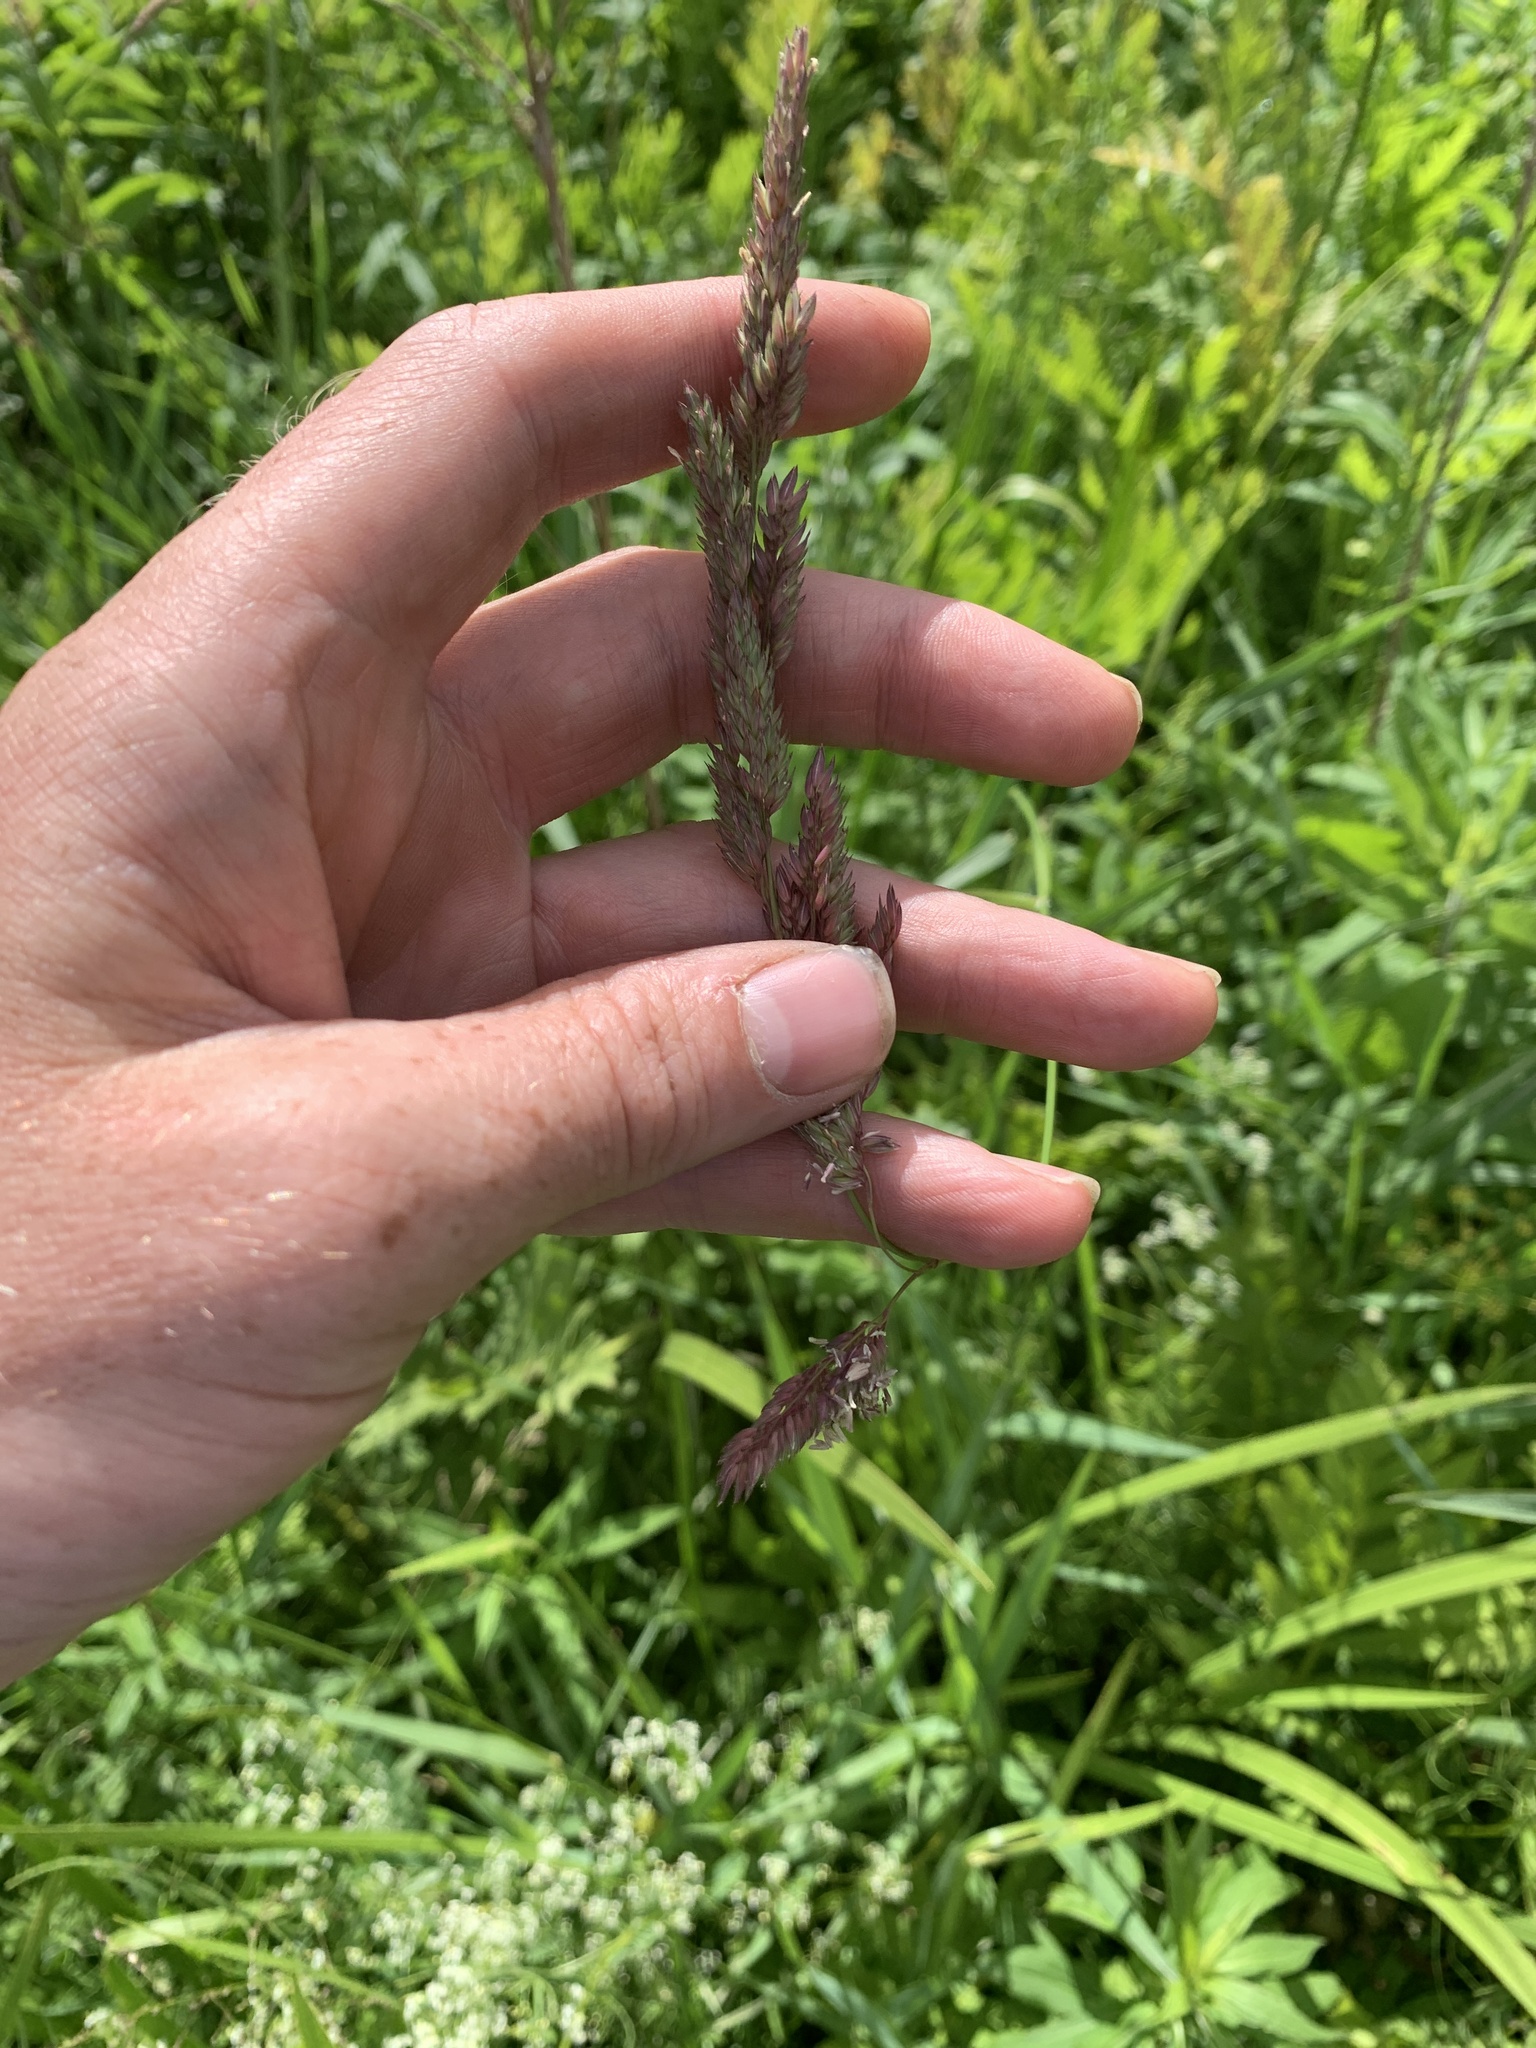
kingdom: Plantae
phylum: Tracheophyta
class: Liliopsida
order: Poales
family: Poaceae
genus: Phalaris
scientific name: Phalaris arundinacea
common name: Reed canary-grass
